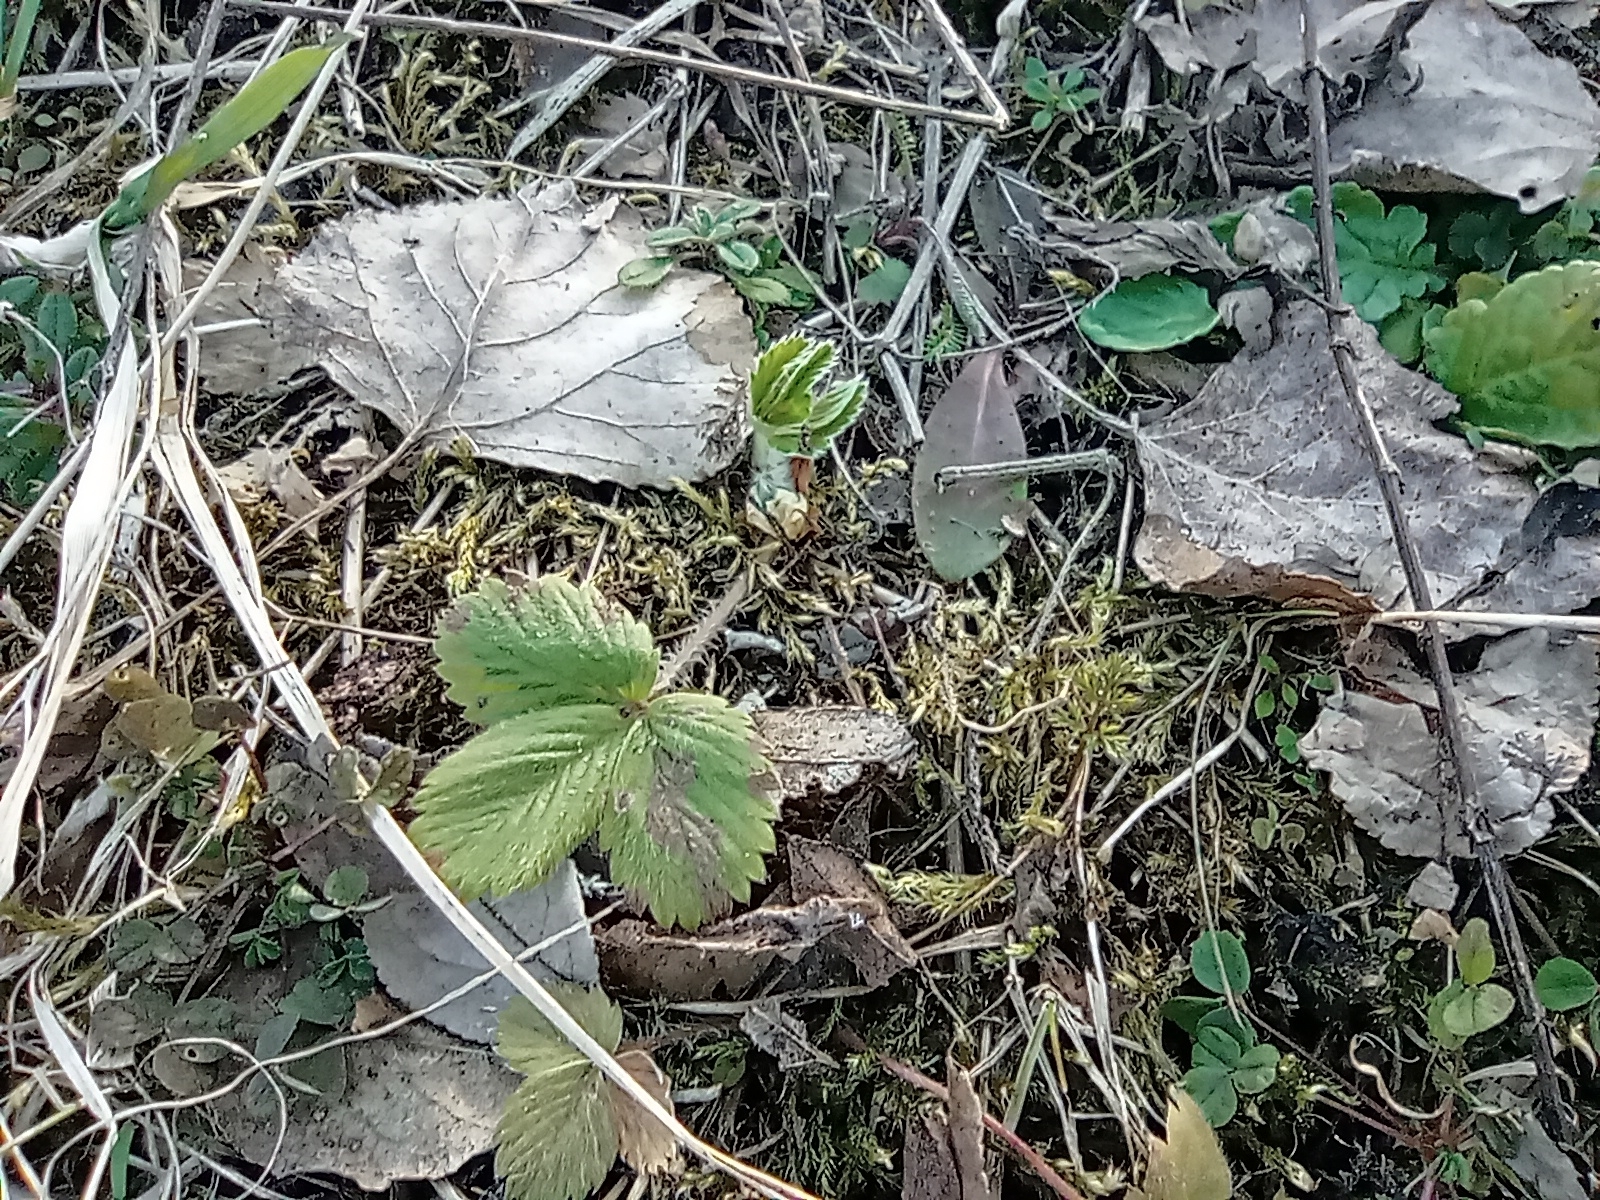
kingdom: Plantae
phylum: Tracheophyta
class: Magnoliopsida
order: Rosales
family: Rosaceae
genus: Fragaria
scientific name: Fragaria vesca
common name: Wild strawberry
